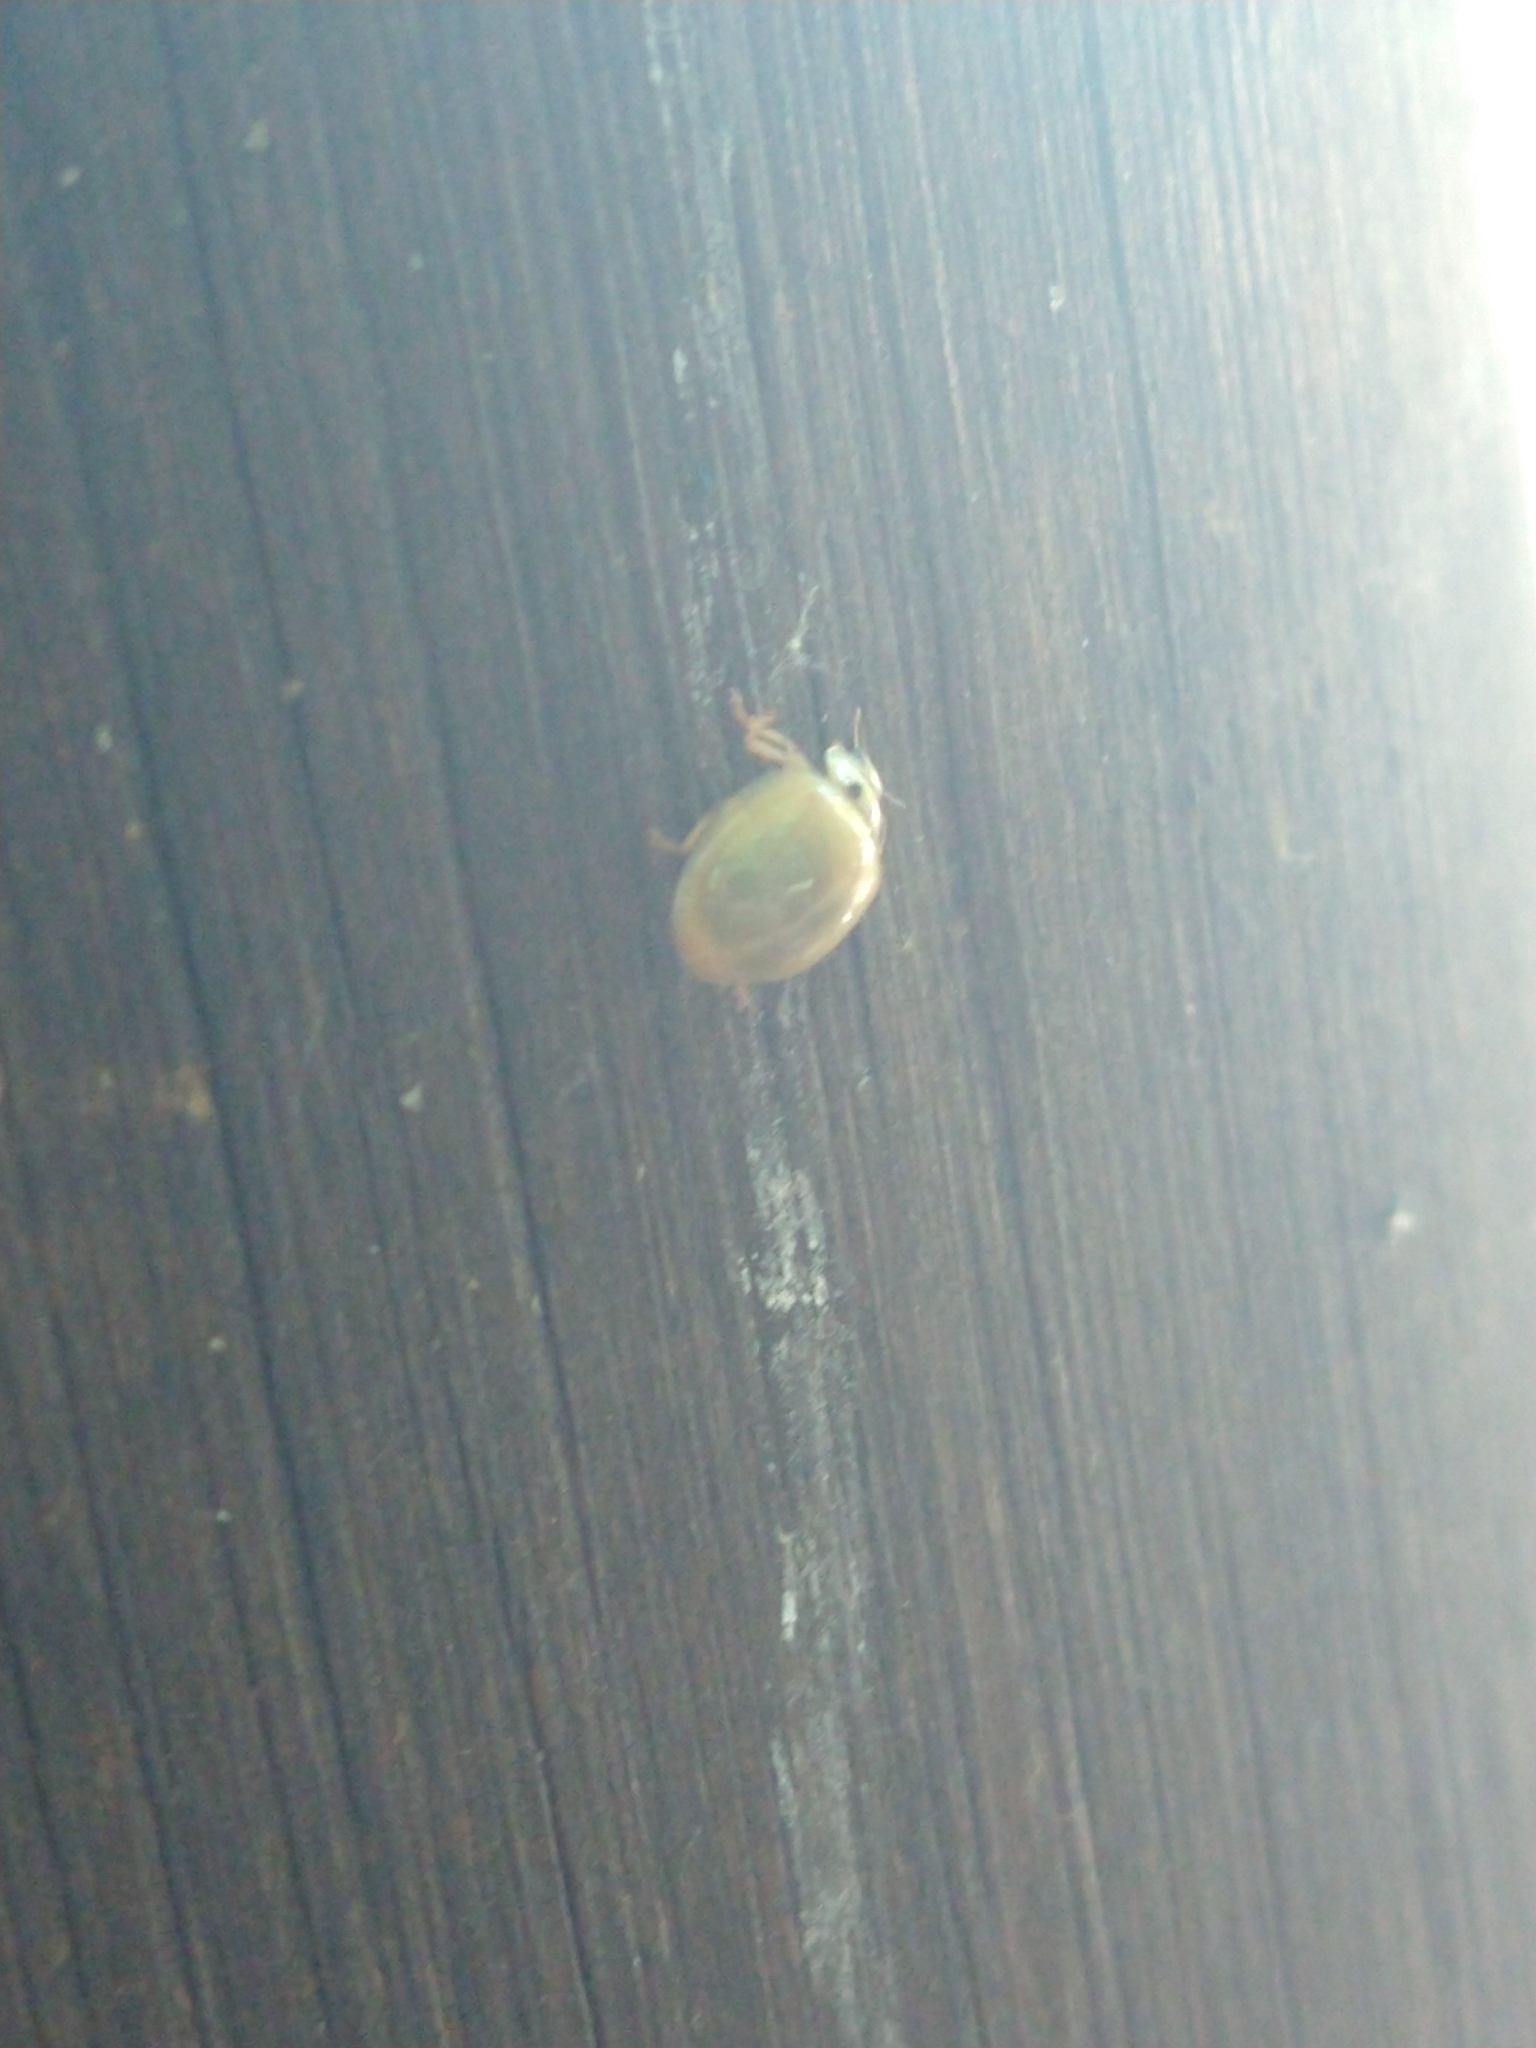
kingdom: Animalia
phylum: Arthropoda
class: Insecta
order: Coleoptera
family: Coccinellidae
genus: Harmonia
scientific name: Harmonia axyridis
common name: Harlequin ladybird
